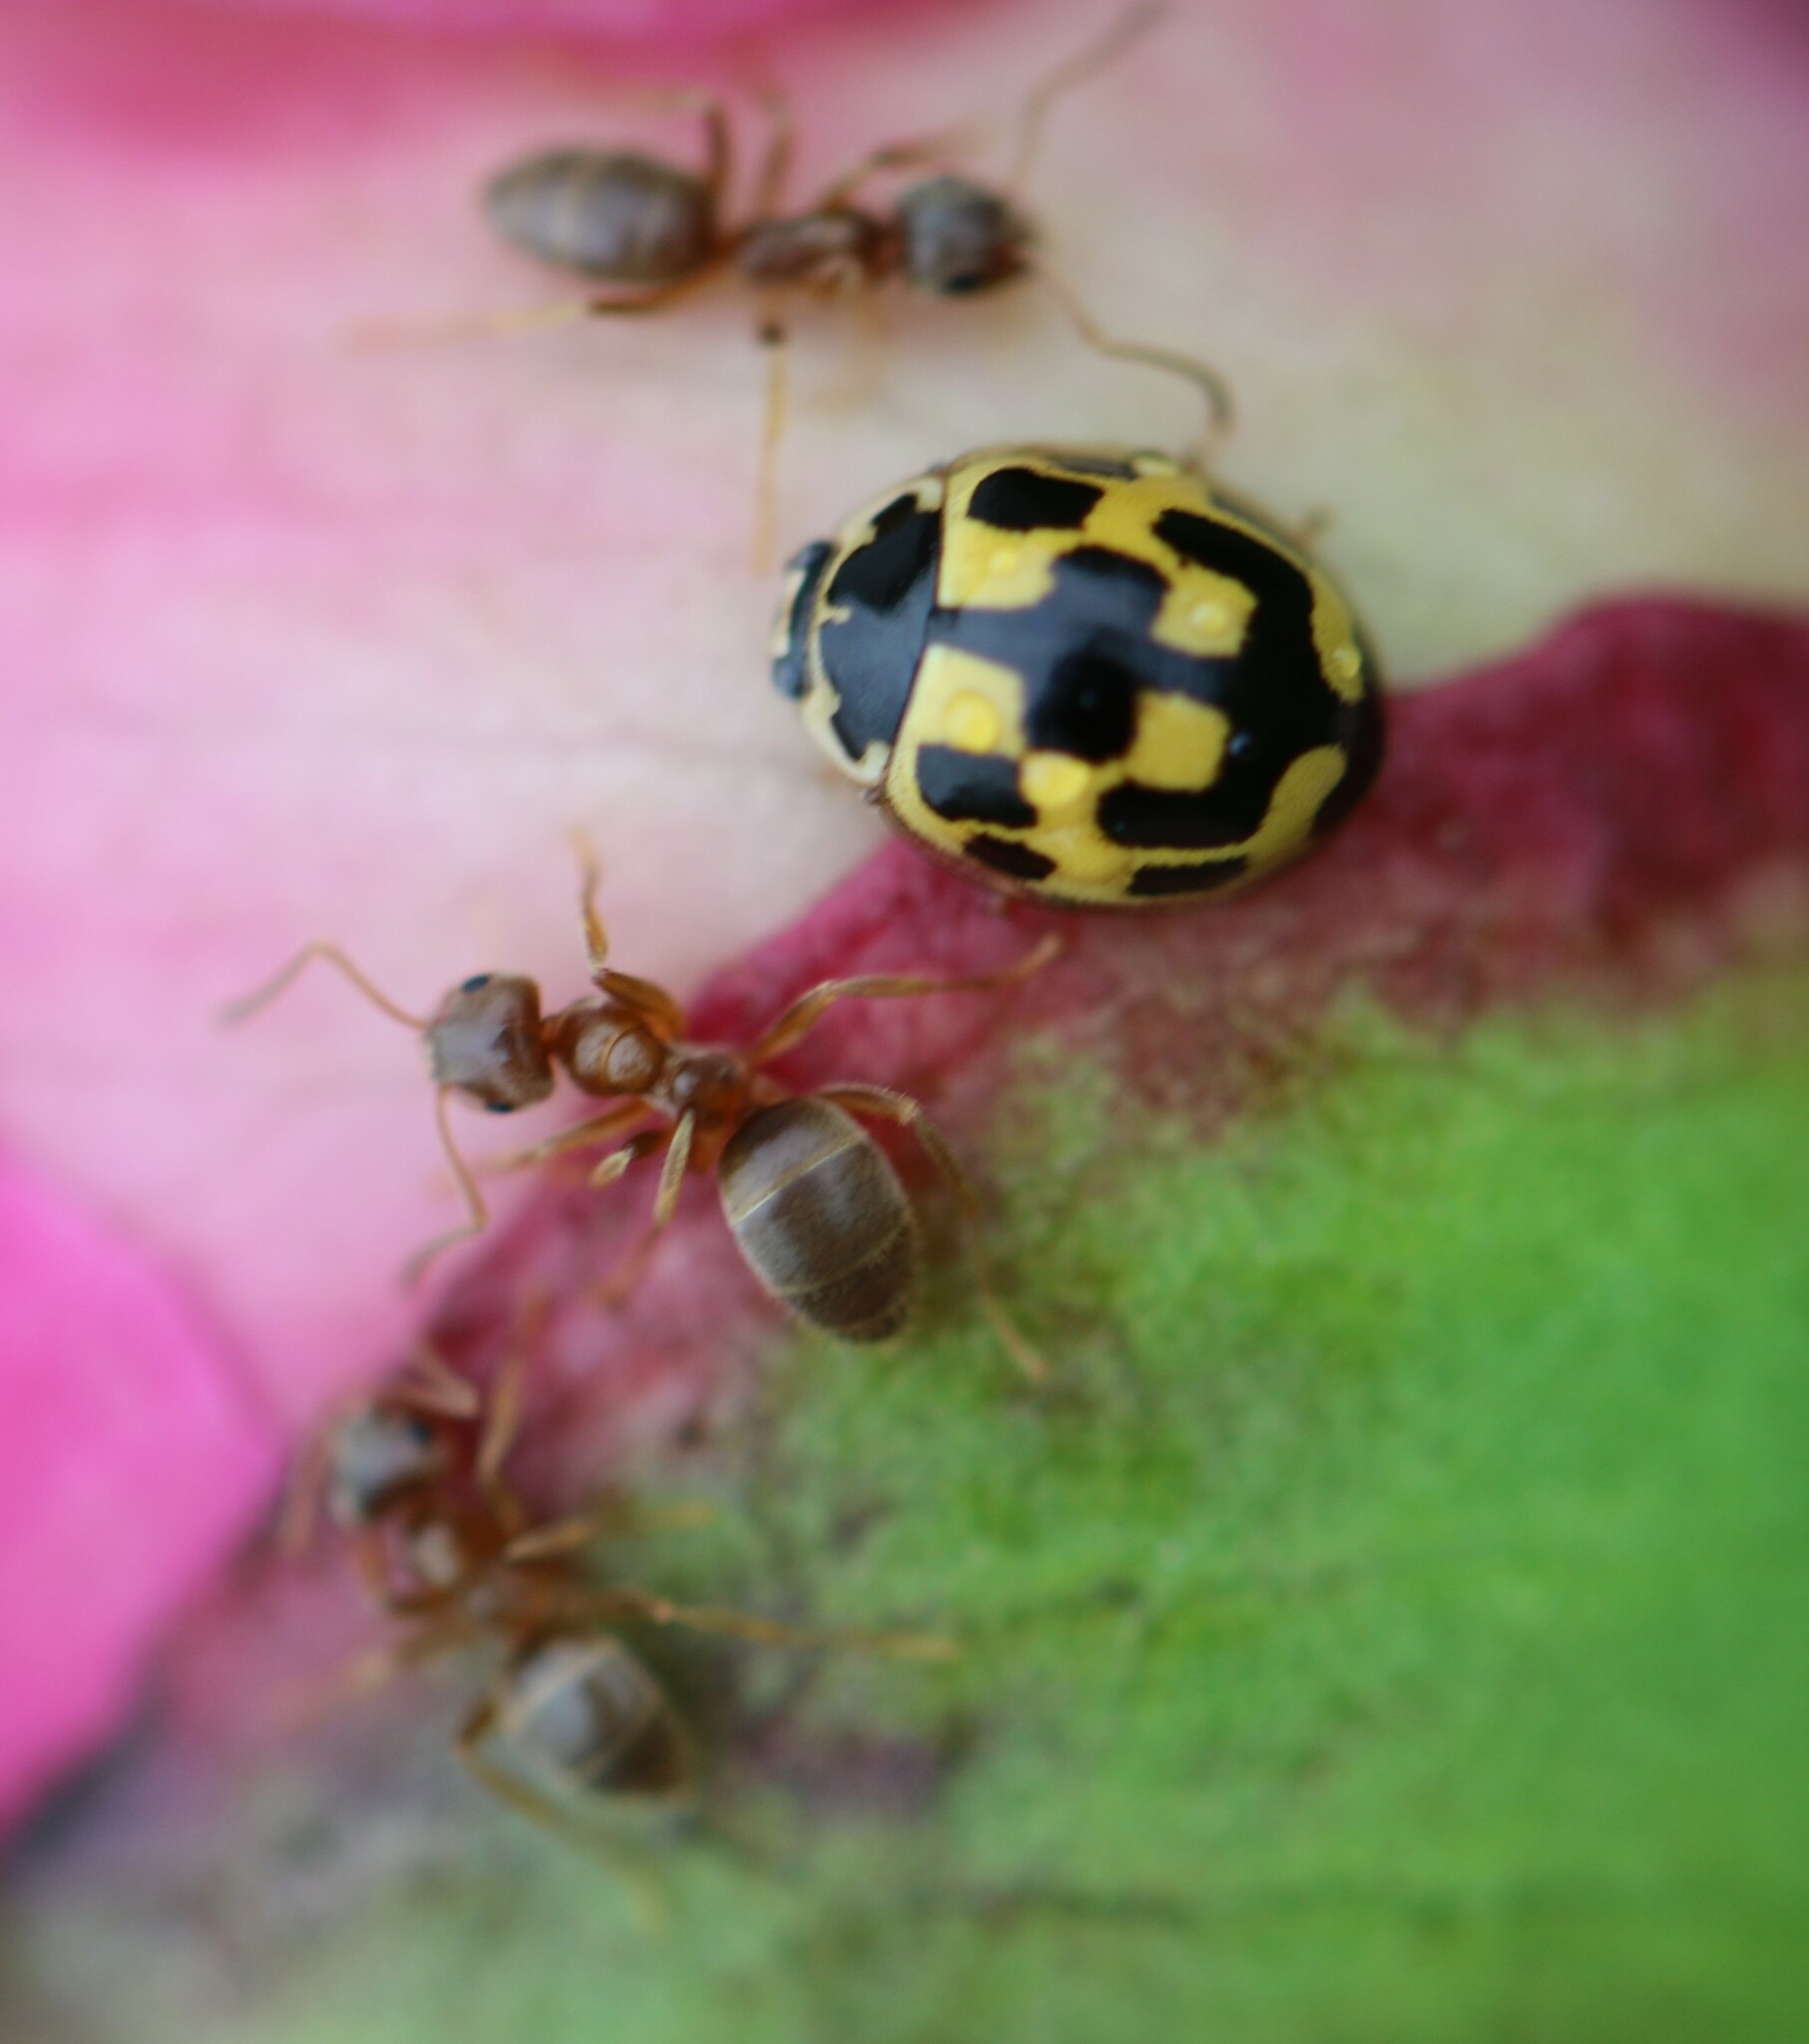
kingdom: Animalia
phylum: Arthropoda
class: Insecta
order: Hymenoptera
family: Formicidae
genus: Lasius
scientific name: Lasius neoniger
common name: Turfgrass ant
